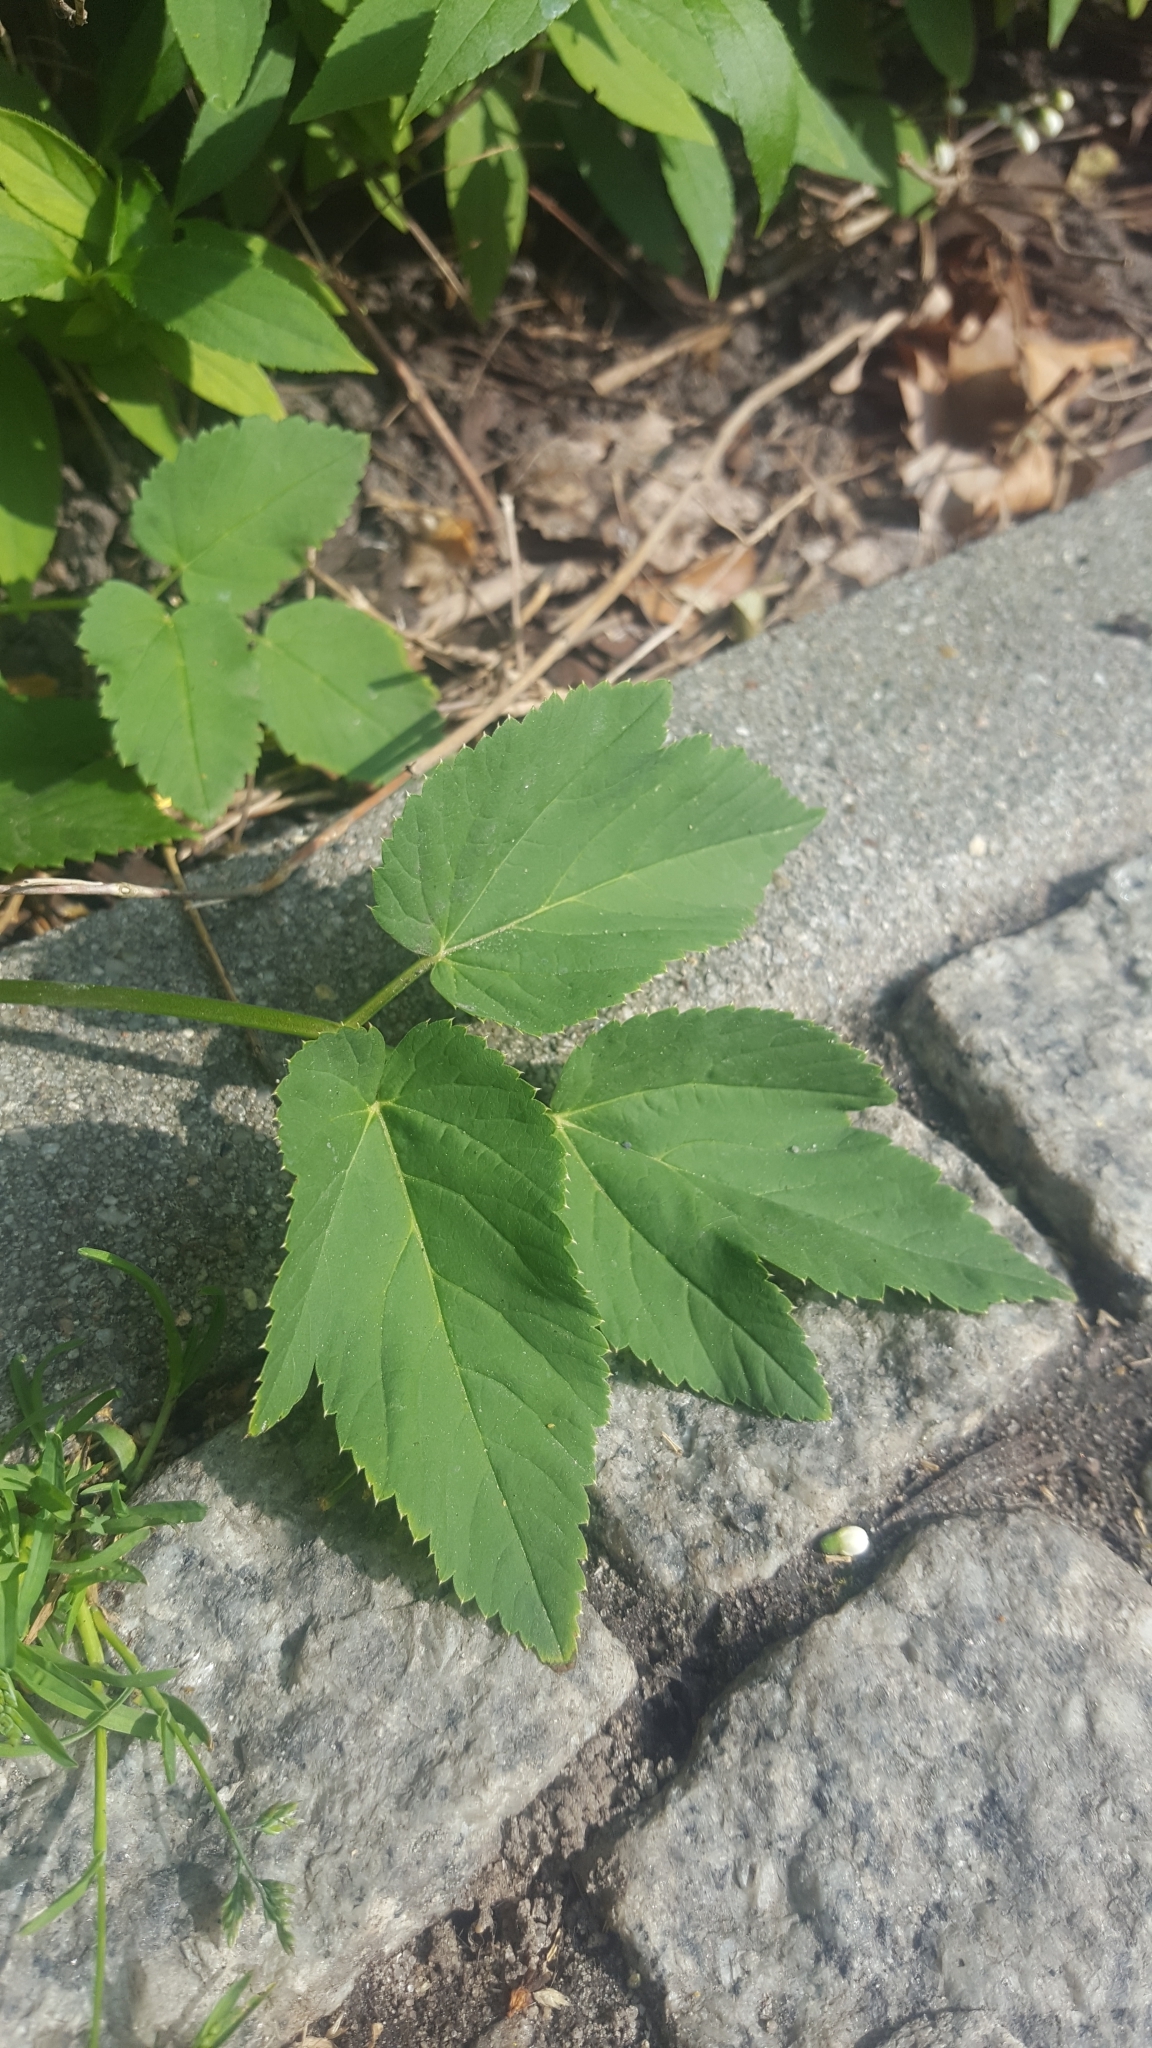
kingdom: Plantae
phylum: Tracheophyta
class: Magnoliopsida
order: Apiales
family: Apiaceae
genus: Aegopodium
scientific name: Aegopodium podagraria
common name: Ground-elder
